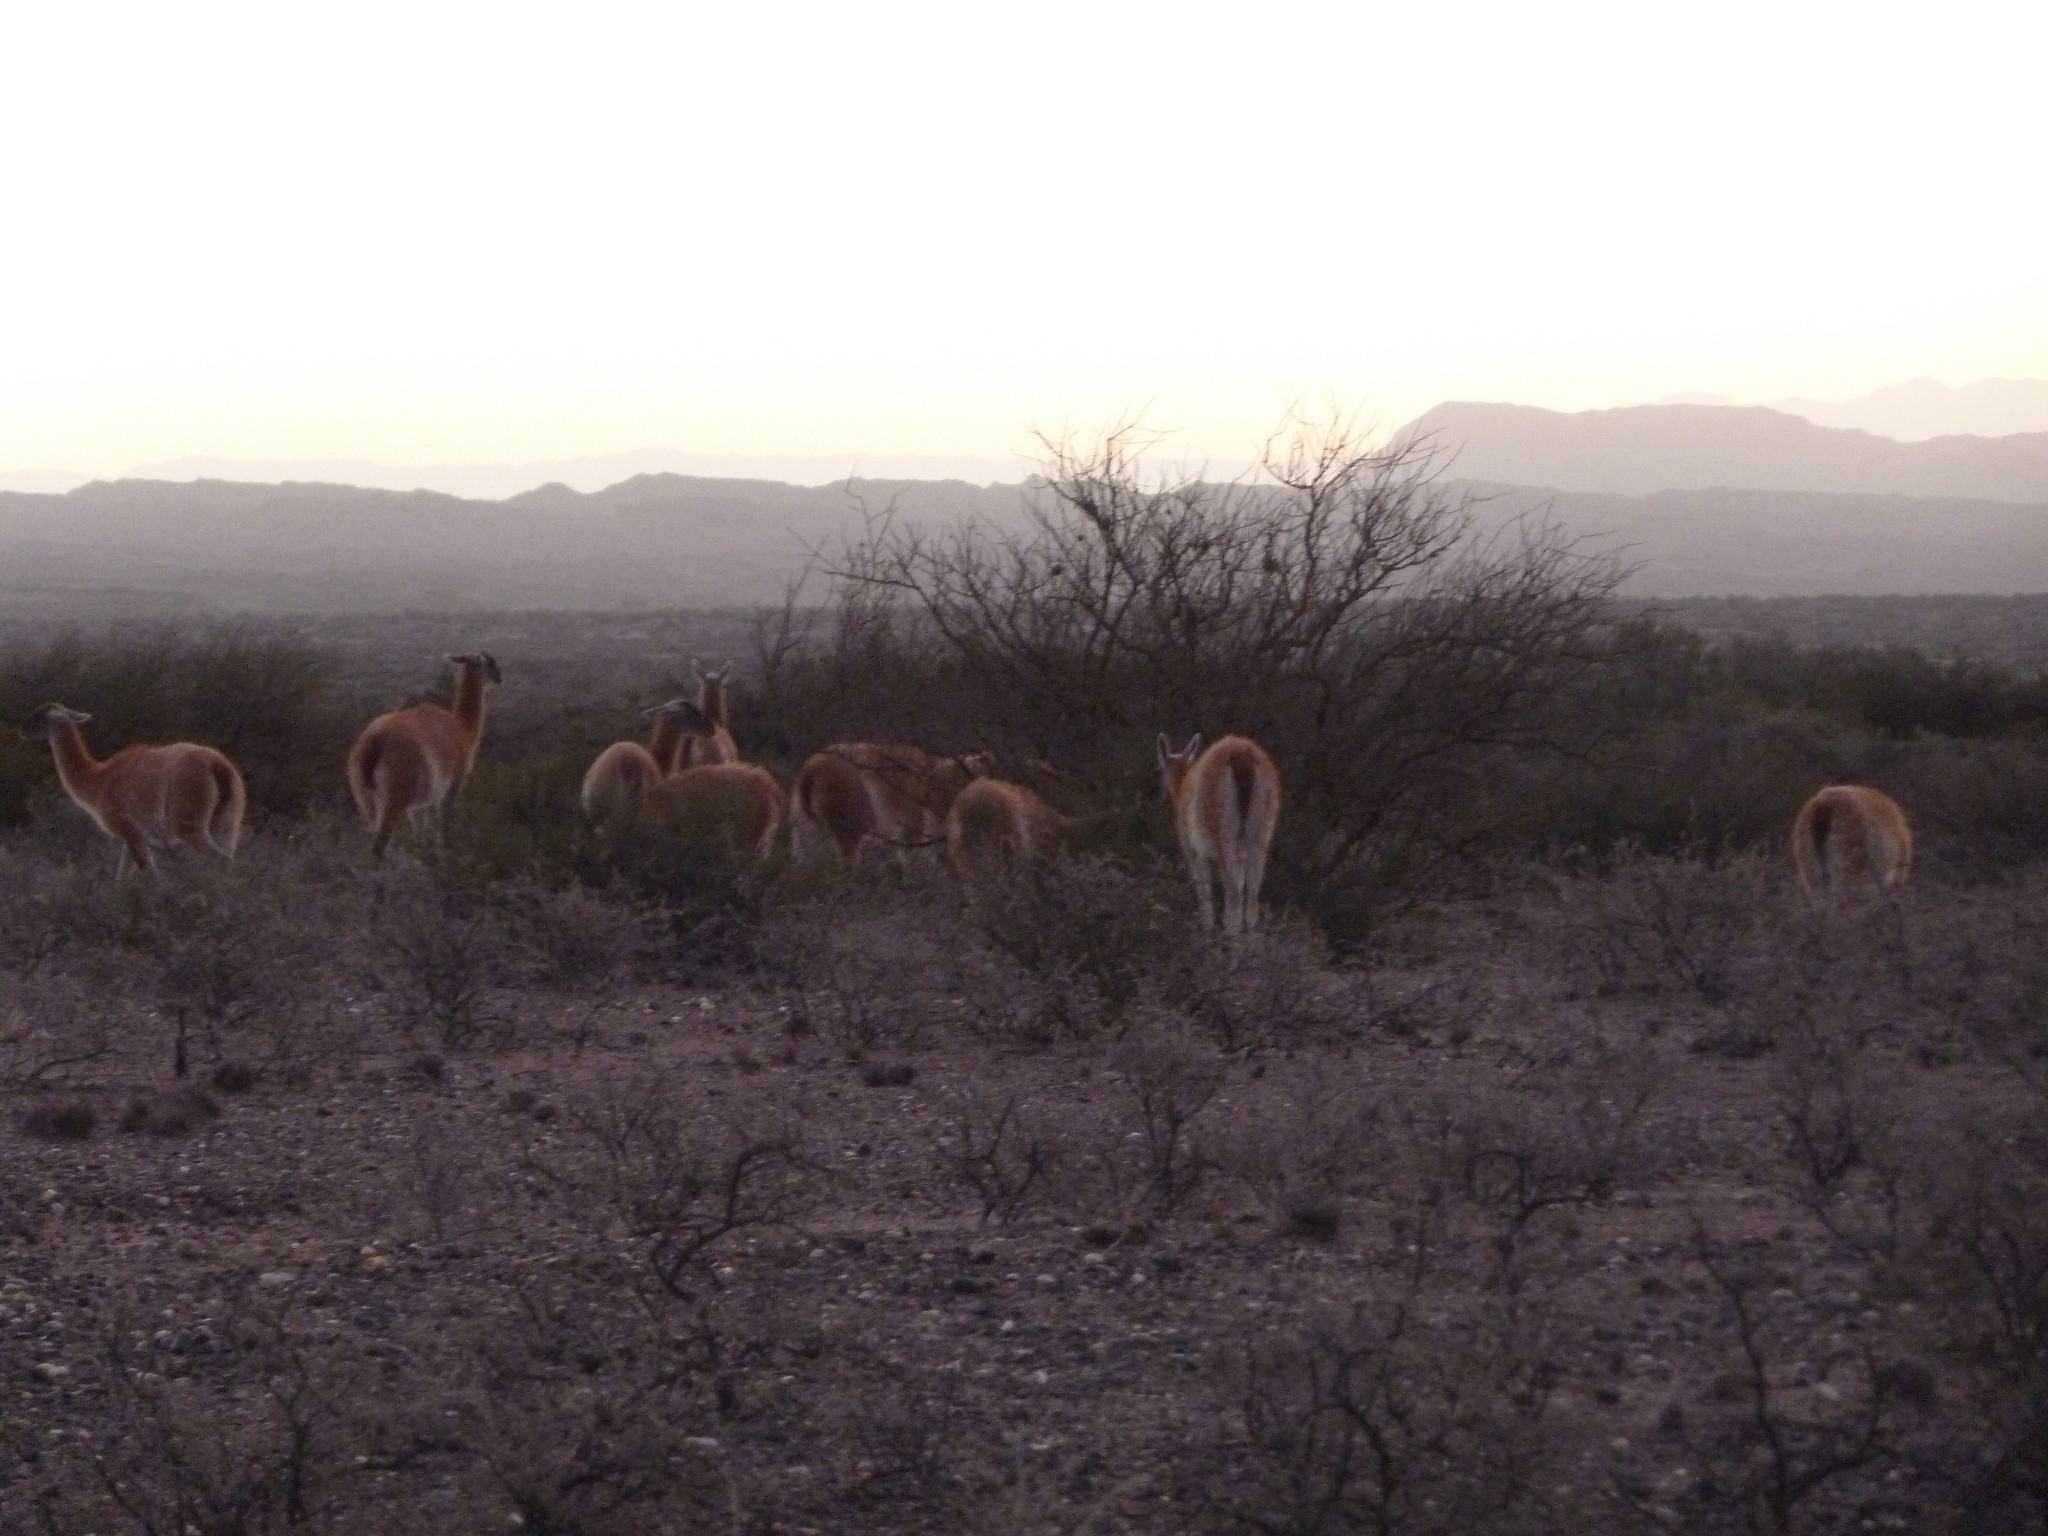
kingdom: Animalia
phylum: Chordata
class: Mammalia
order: Artiodactyla
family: Camelidae
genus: Lama
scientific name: Lama glama
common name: Llama
